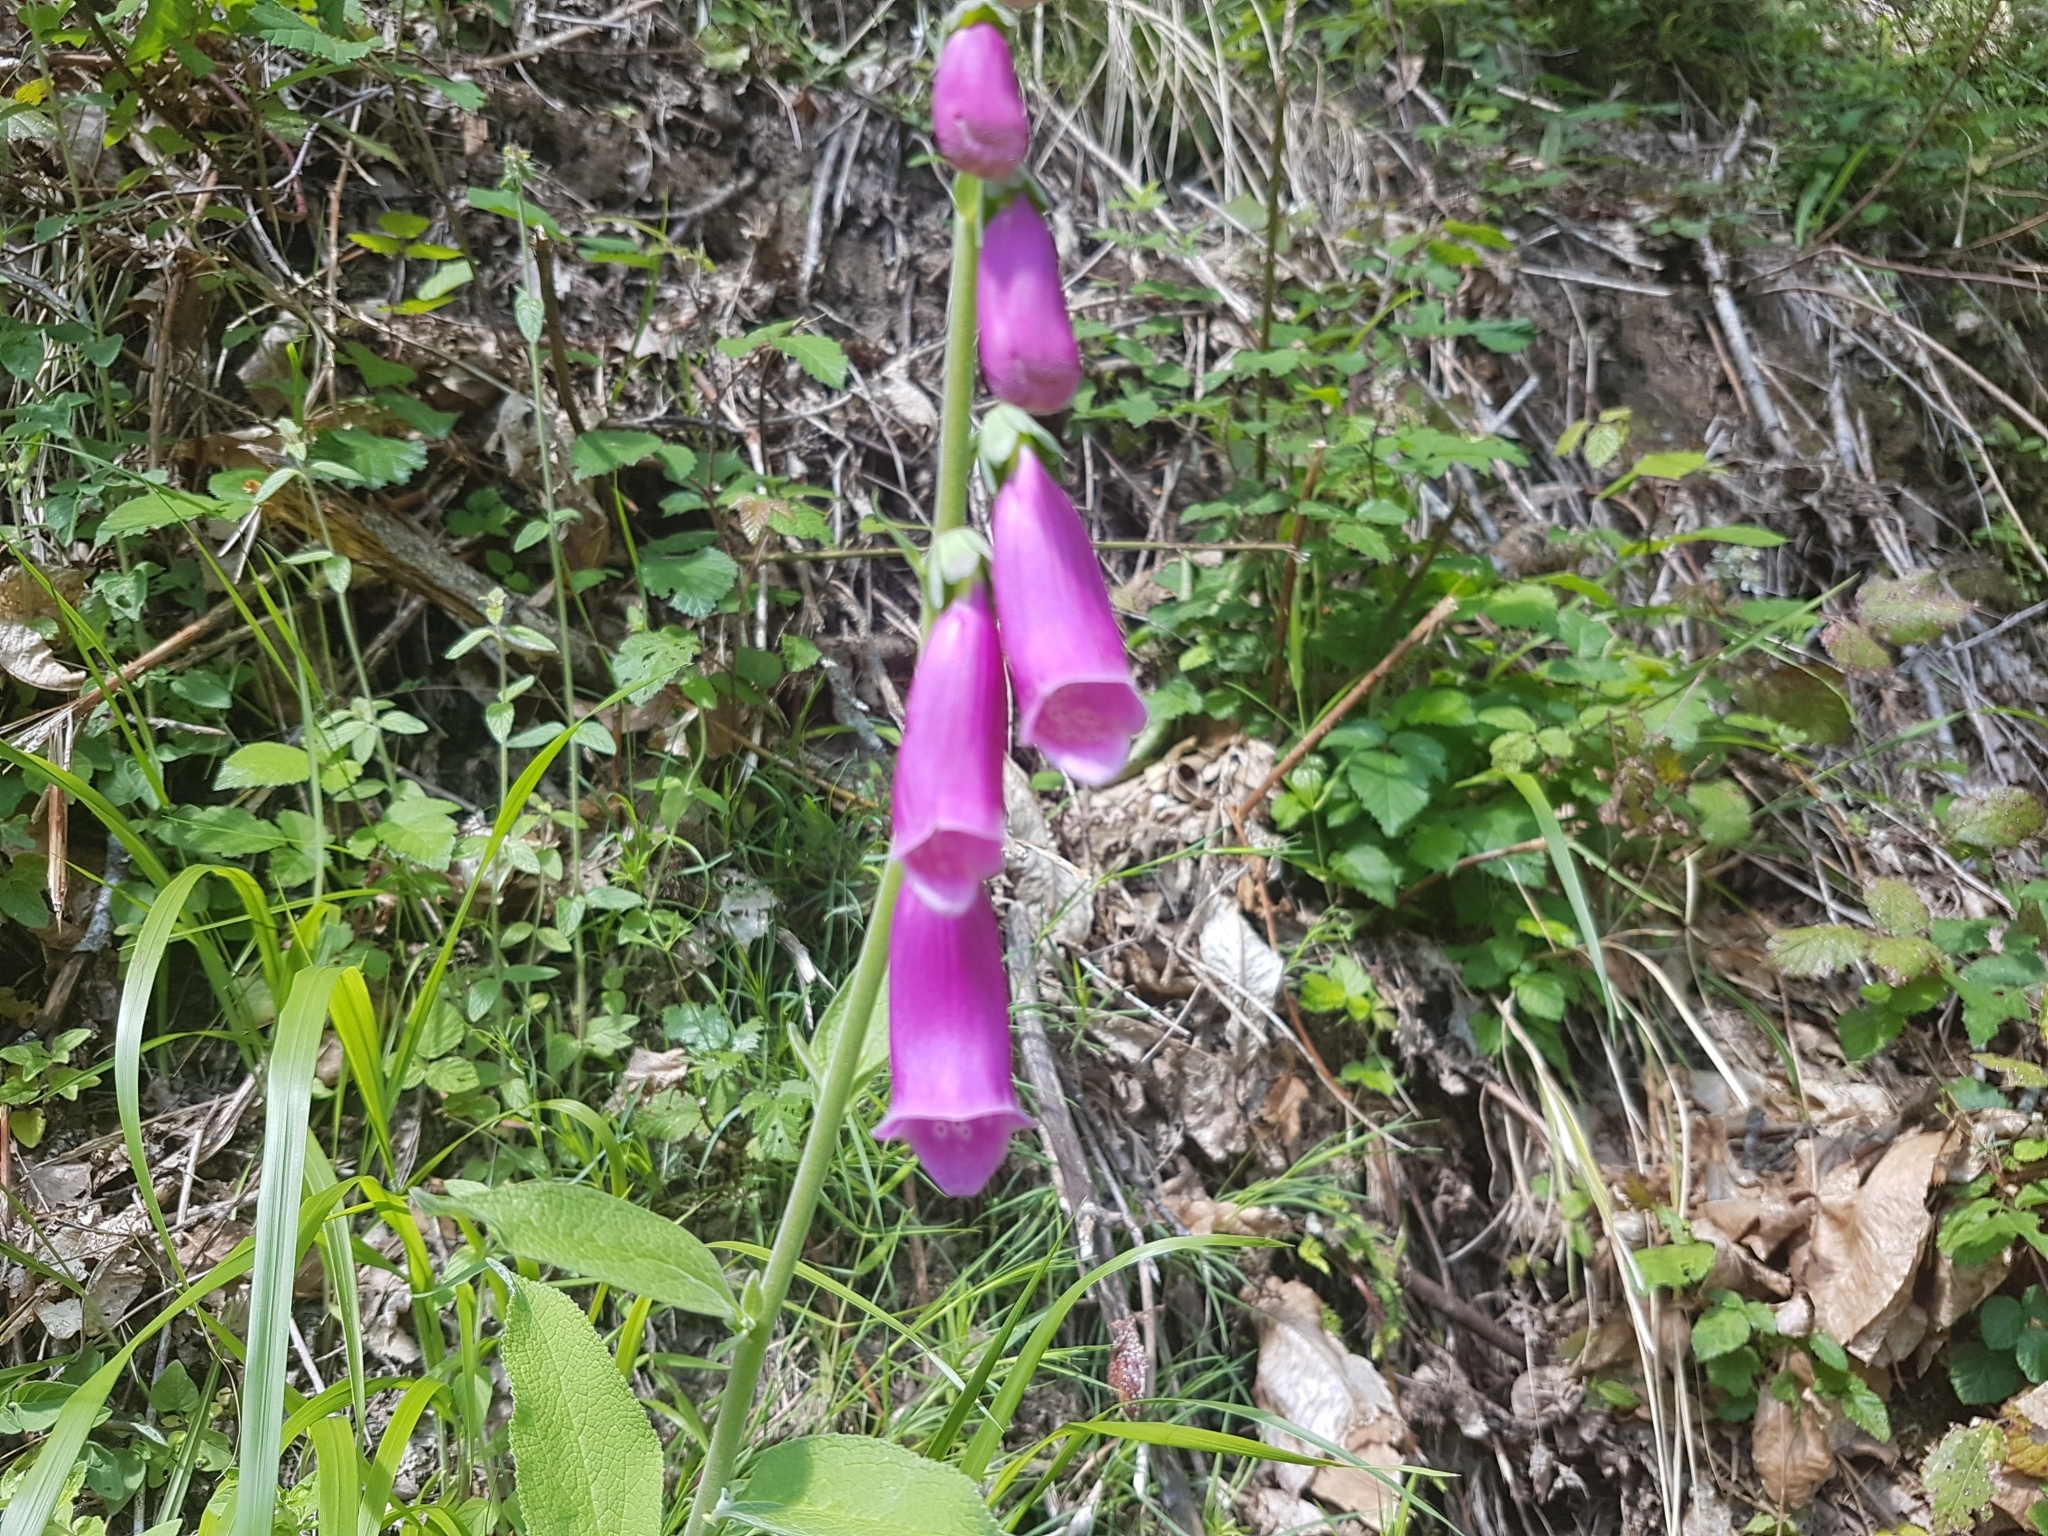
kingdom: Plantae
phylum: Tracheophyta
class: Magnoliopsida
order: Lamiales
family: Plantaginaceae
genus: Digitalis
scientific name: Digitalis purpurea
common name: Foxglove
